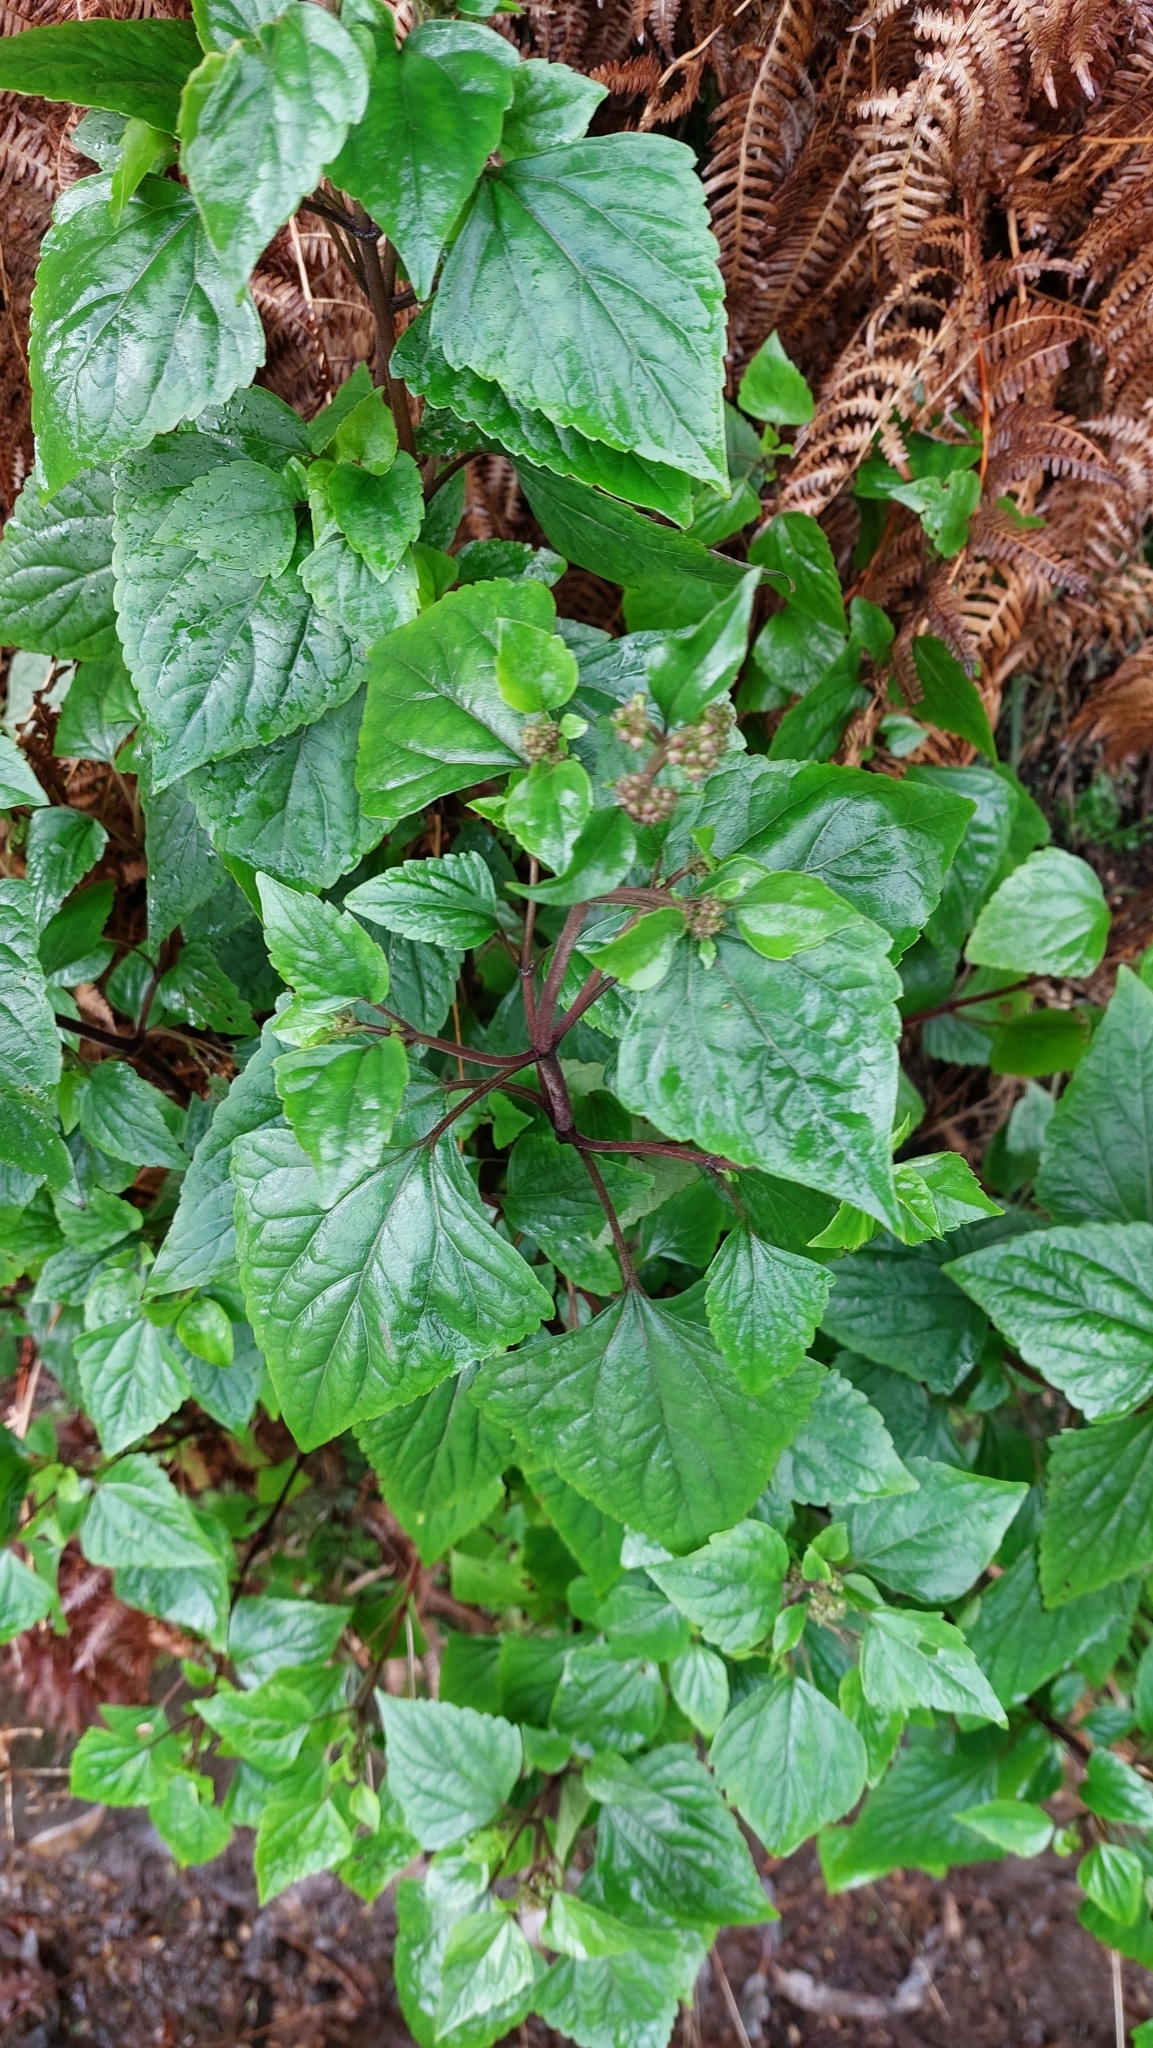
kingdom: Plantae
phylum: Tracheophyta
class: Magnoliopsida
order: Asterales
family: Asteraceae
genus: Ageratina
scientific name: Ageratina adenophora
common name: Sticky snakeroot
